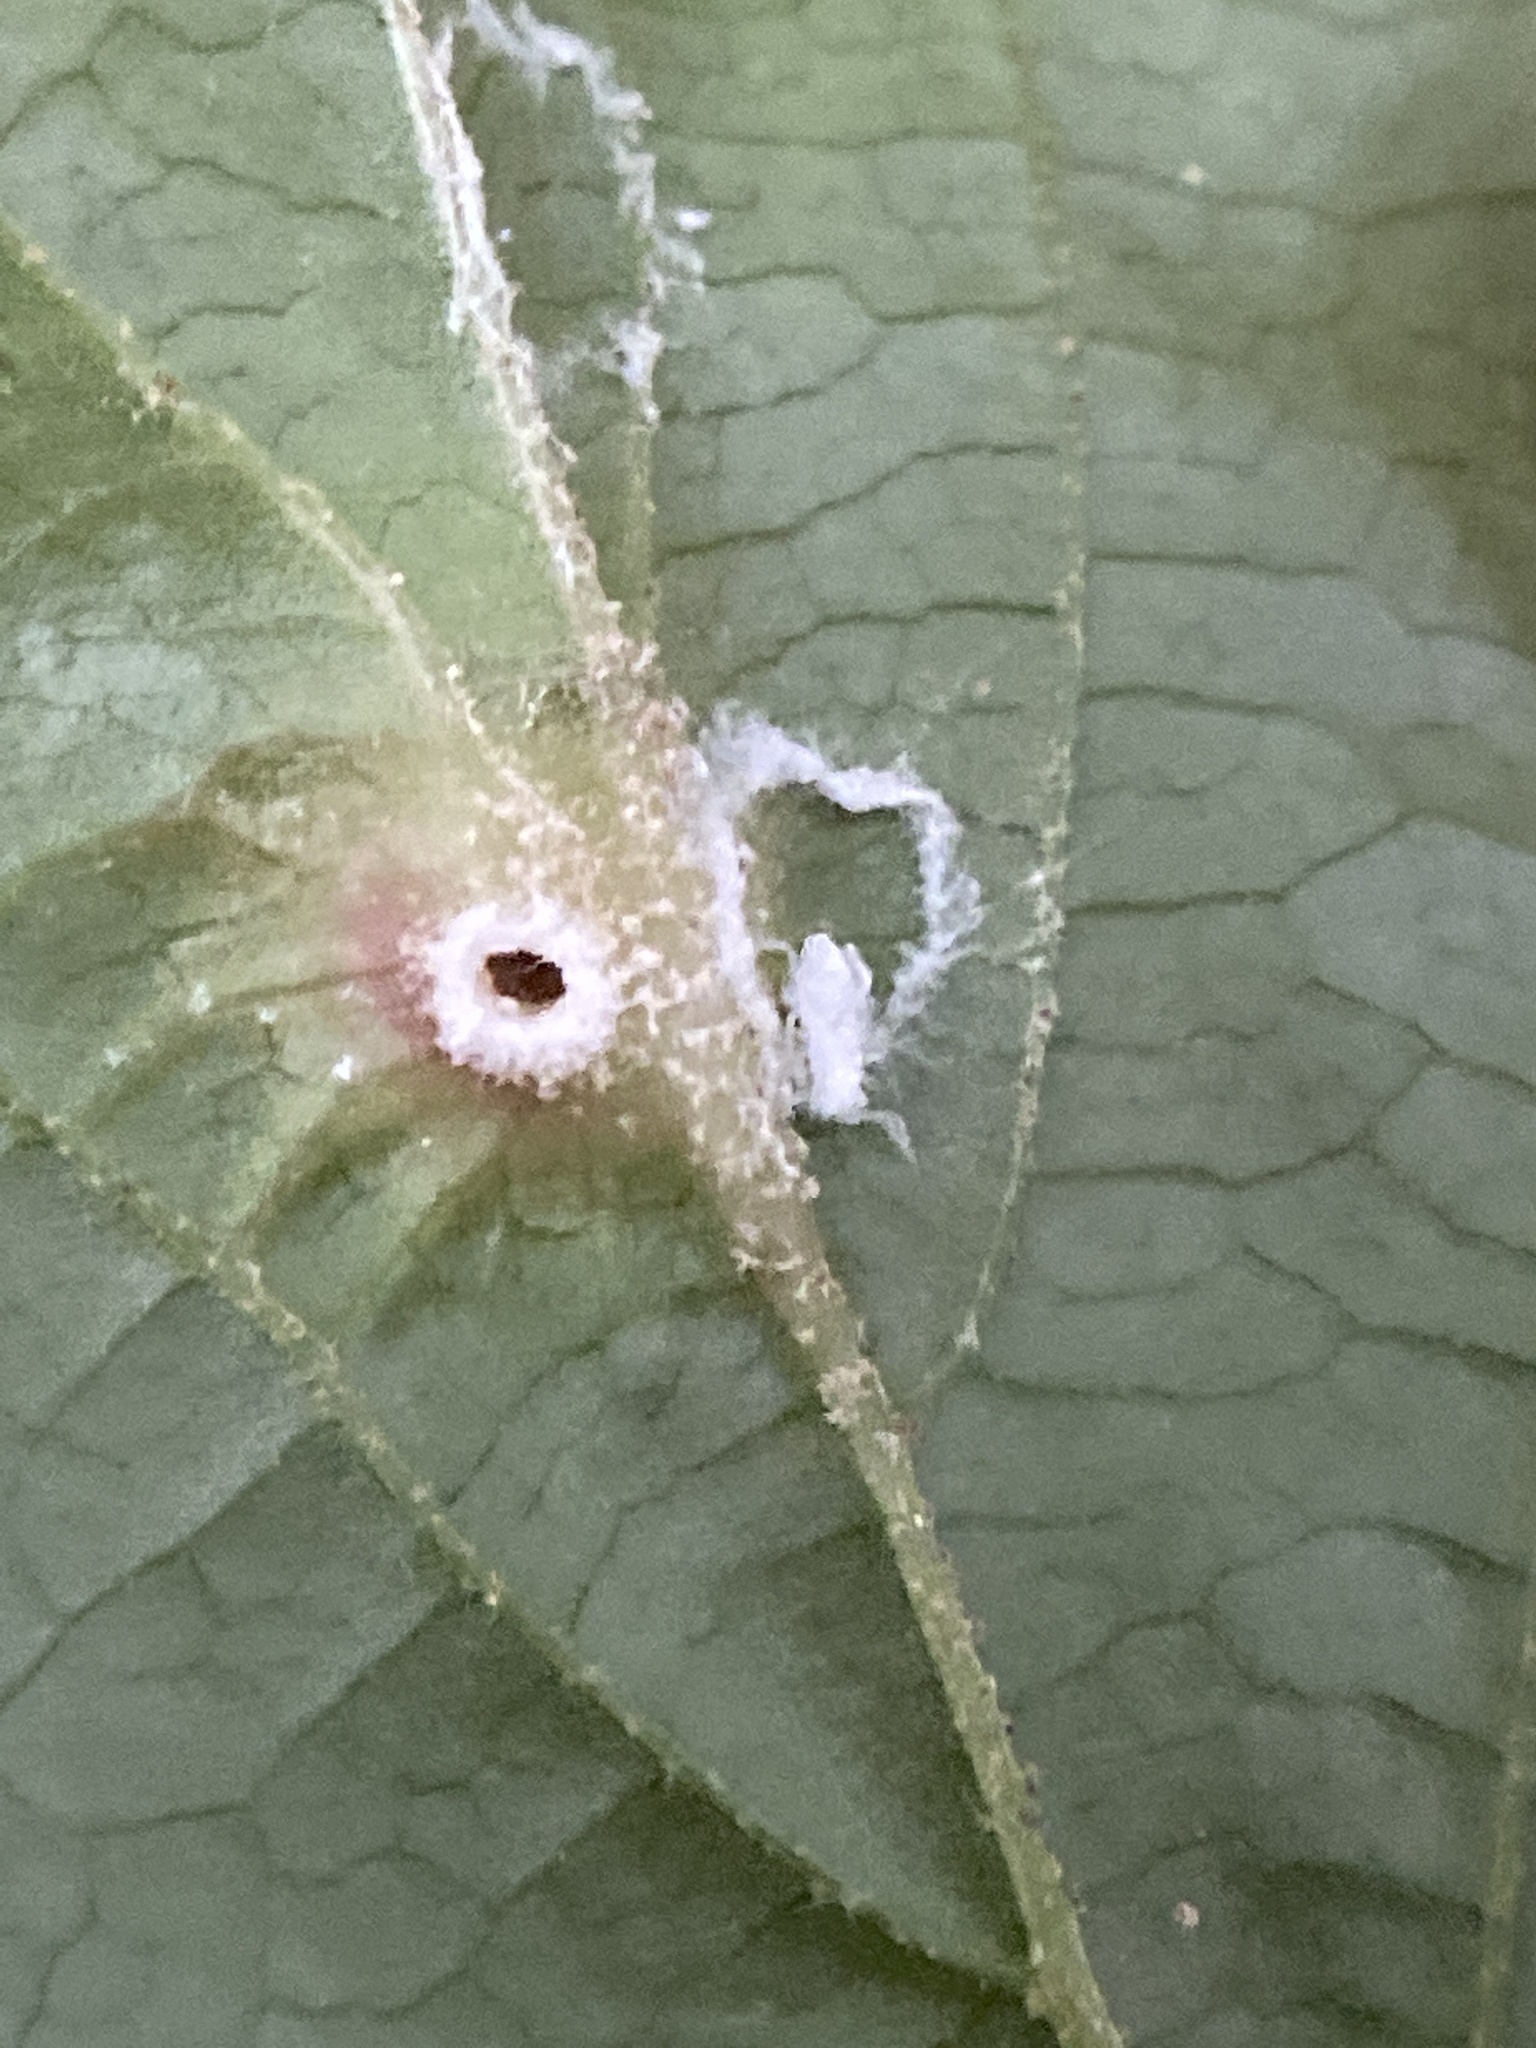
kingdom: Animalia
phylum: Arthropoda
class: Insecta
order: Hemiptera
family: Aphididae
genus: Hormaphis
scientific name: Hormaphis hamamelidis
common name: Witch-hazel cone gall aphid
